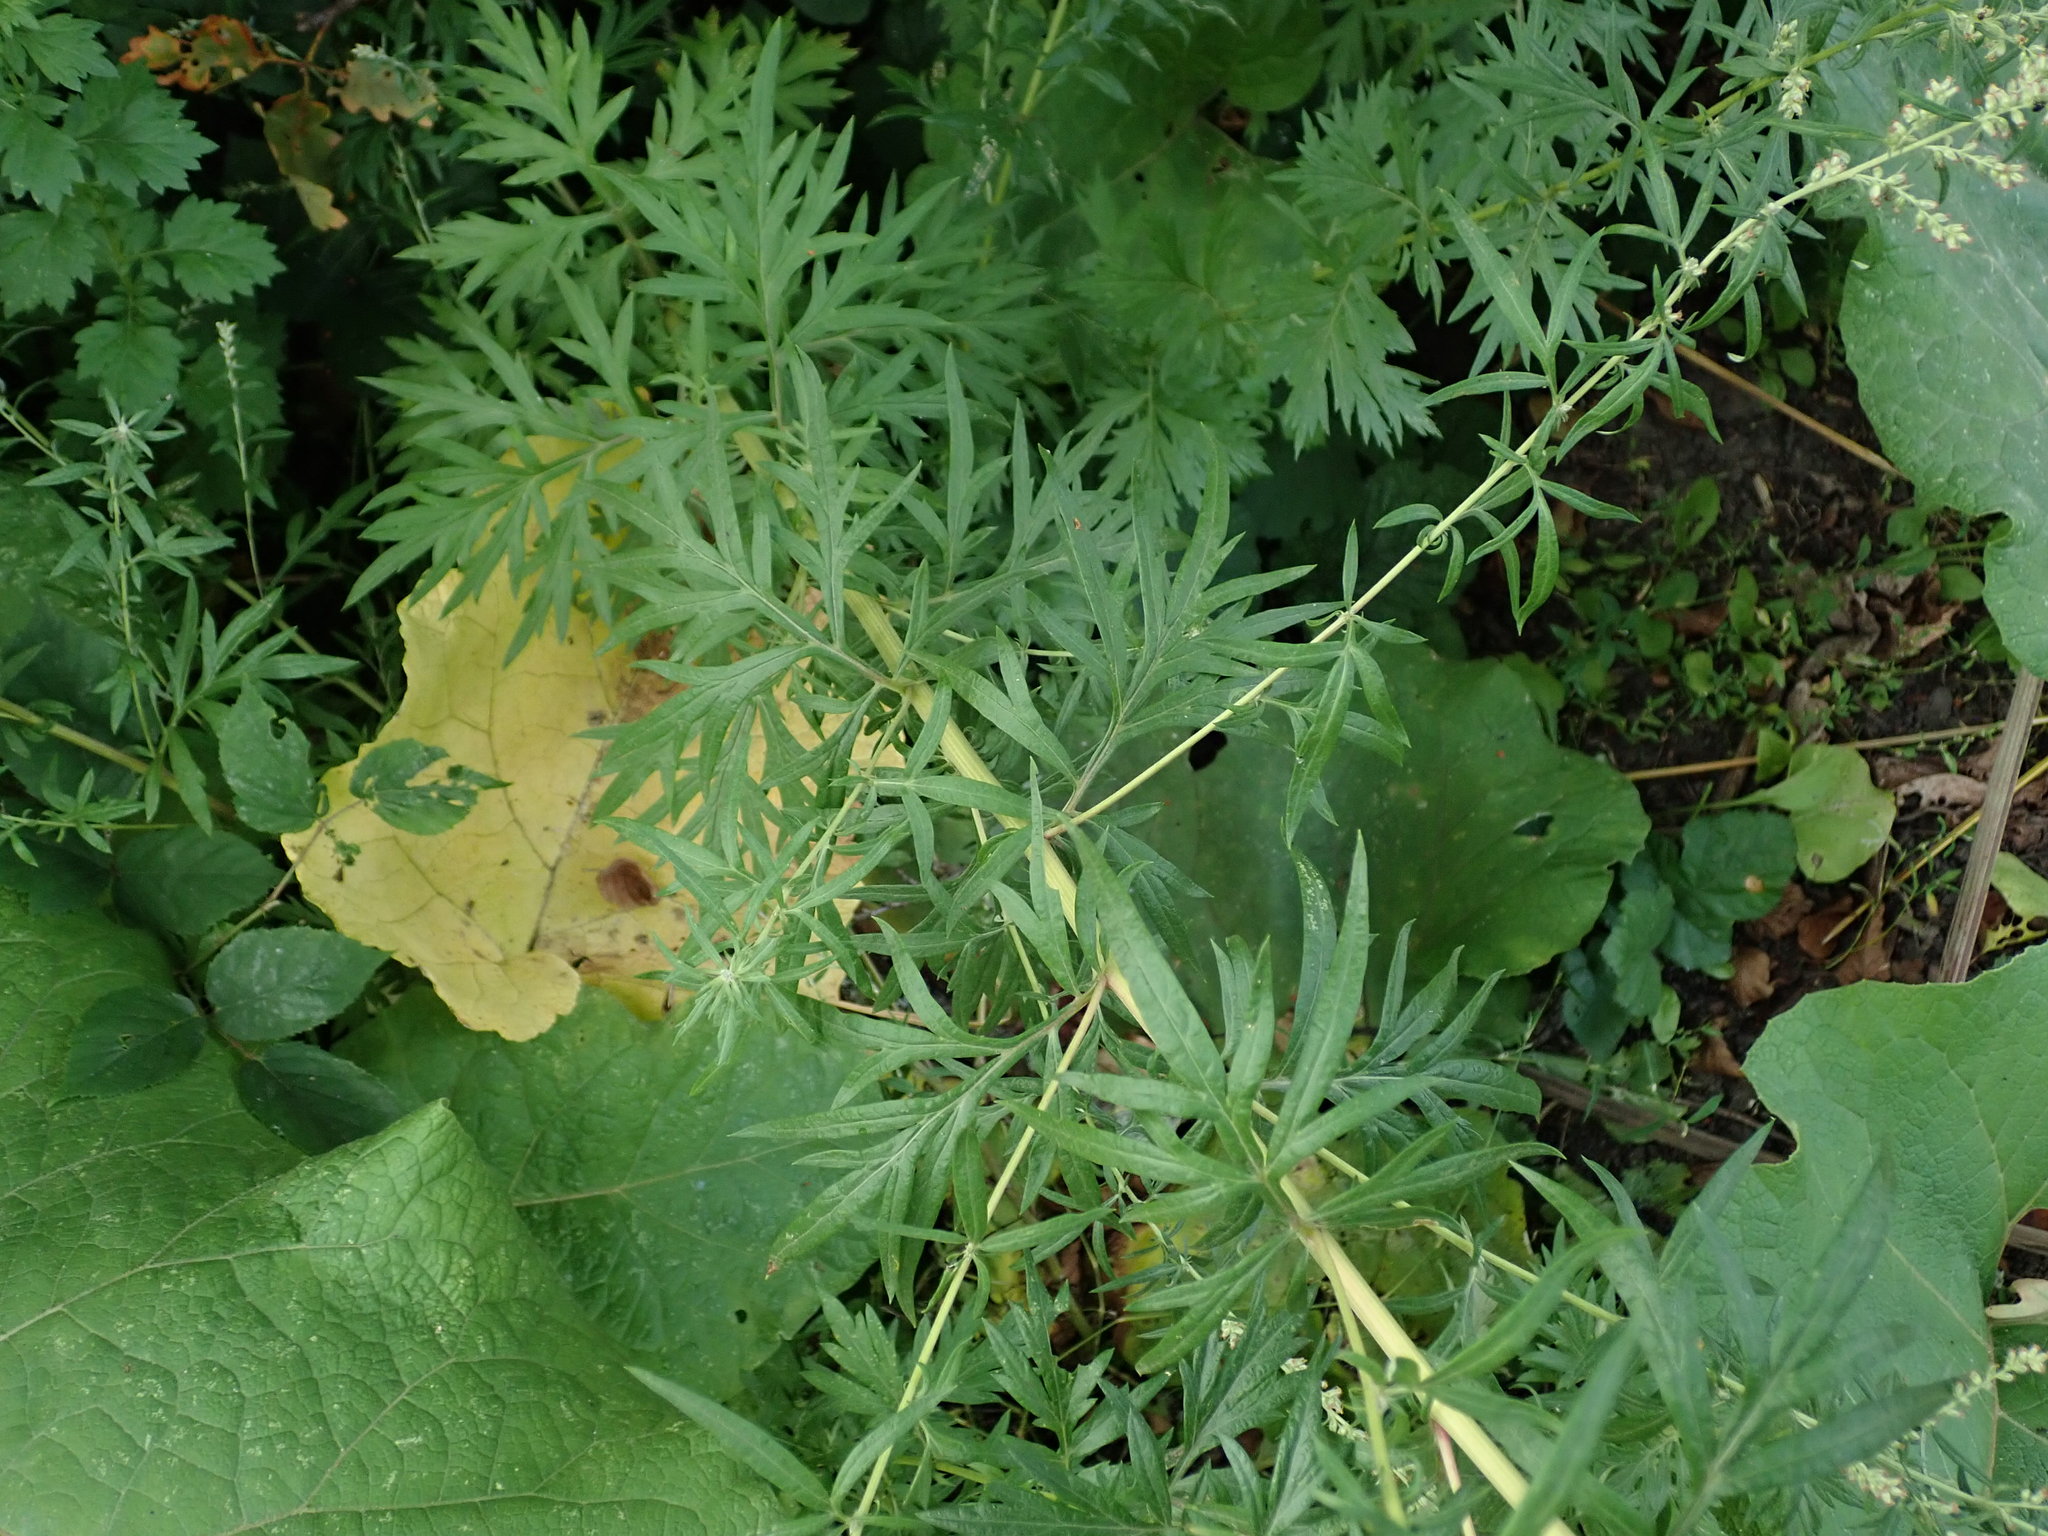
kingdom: Plantae
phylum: Tracheophyta
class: Magnoliopsida
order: Asterales
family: Asteraceae
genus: Artemisia
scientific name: Artemisia vulgaris
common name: Mugwort
